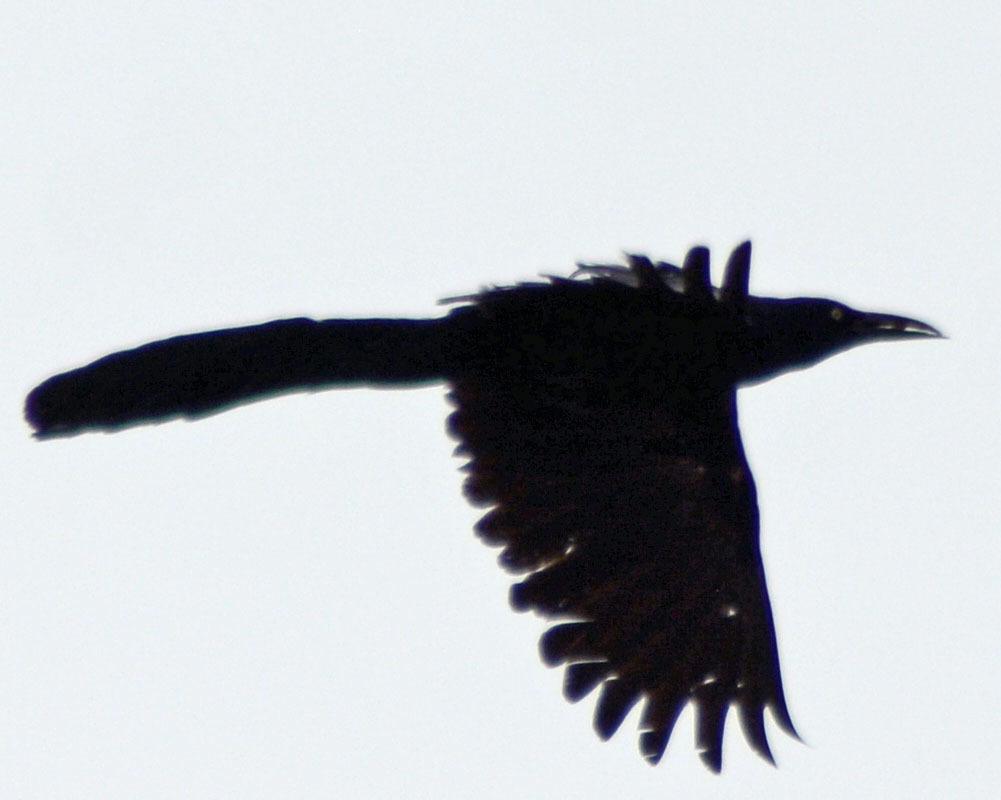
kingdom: Animalia
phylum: Chordata
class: Aves
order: Passeriformes
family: Icteridae
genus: Quiscalus
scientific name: Quiscalus mexicanus
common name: Great-tailed grackle
